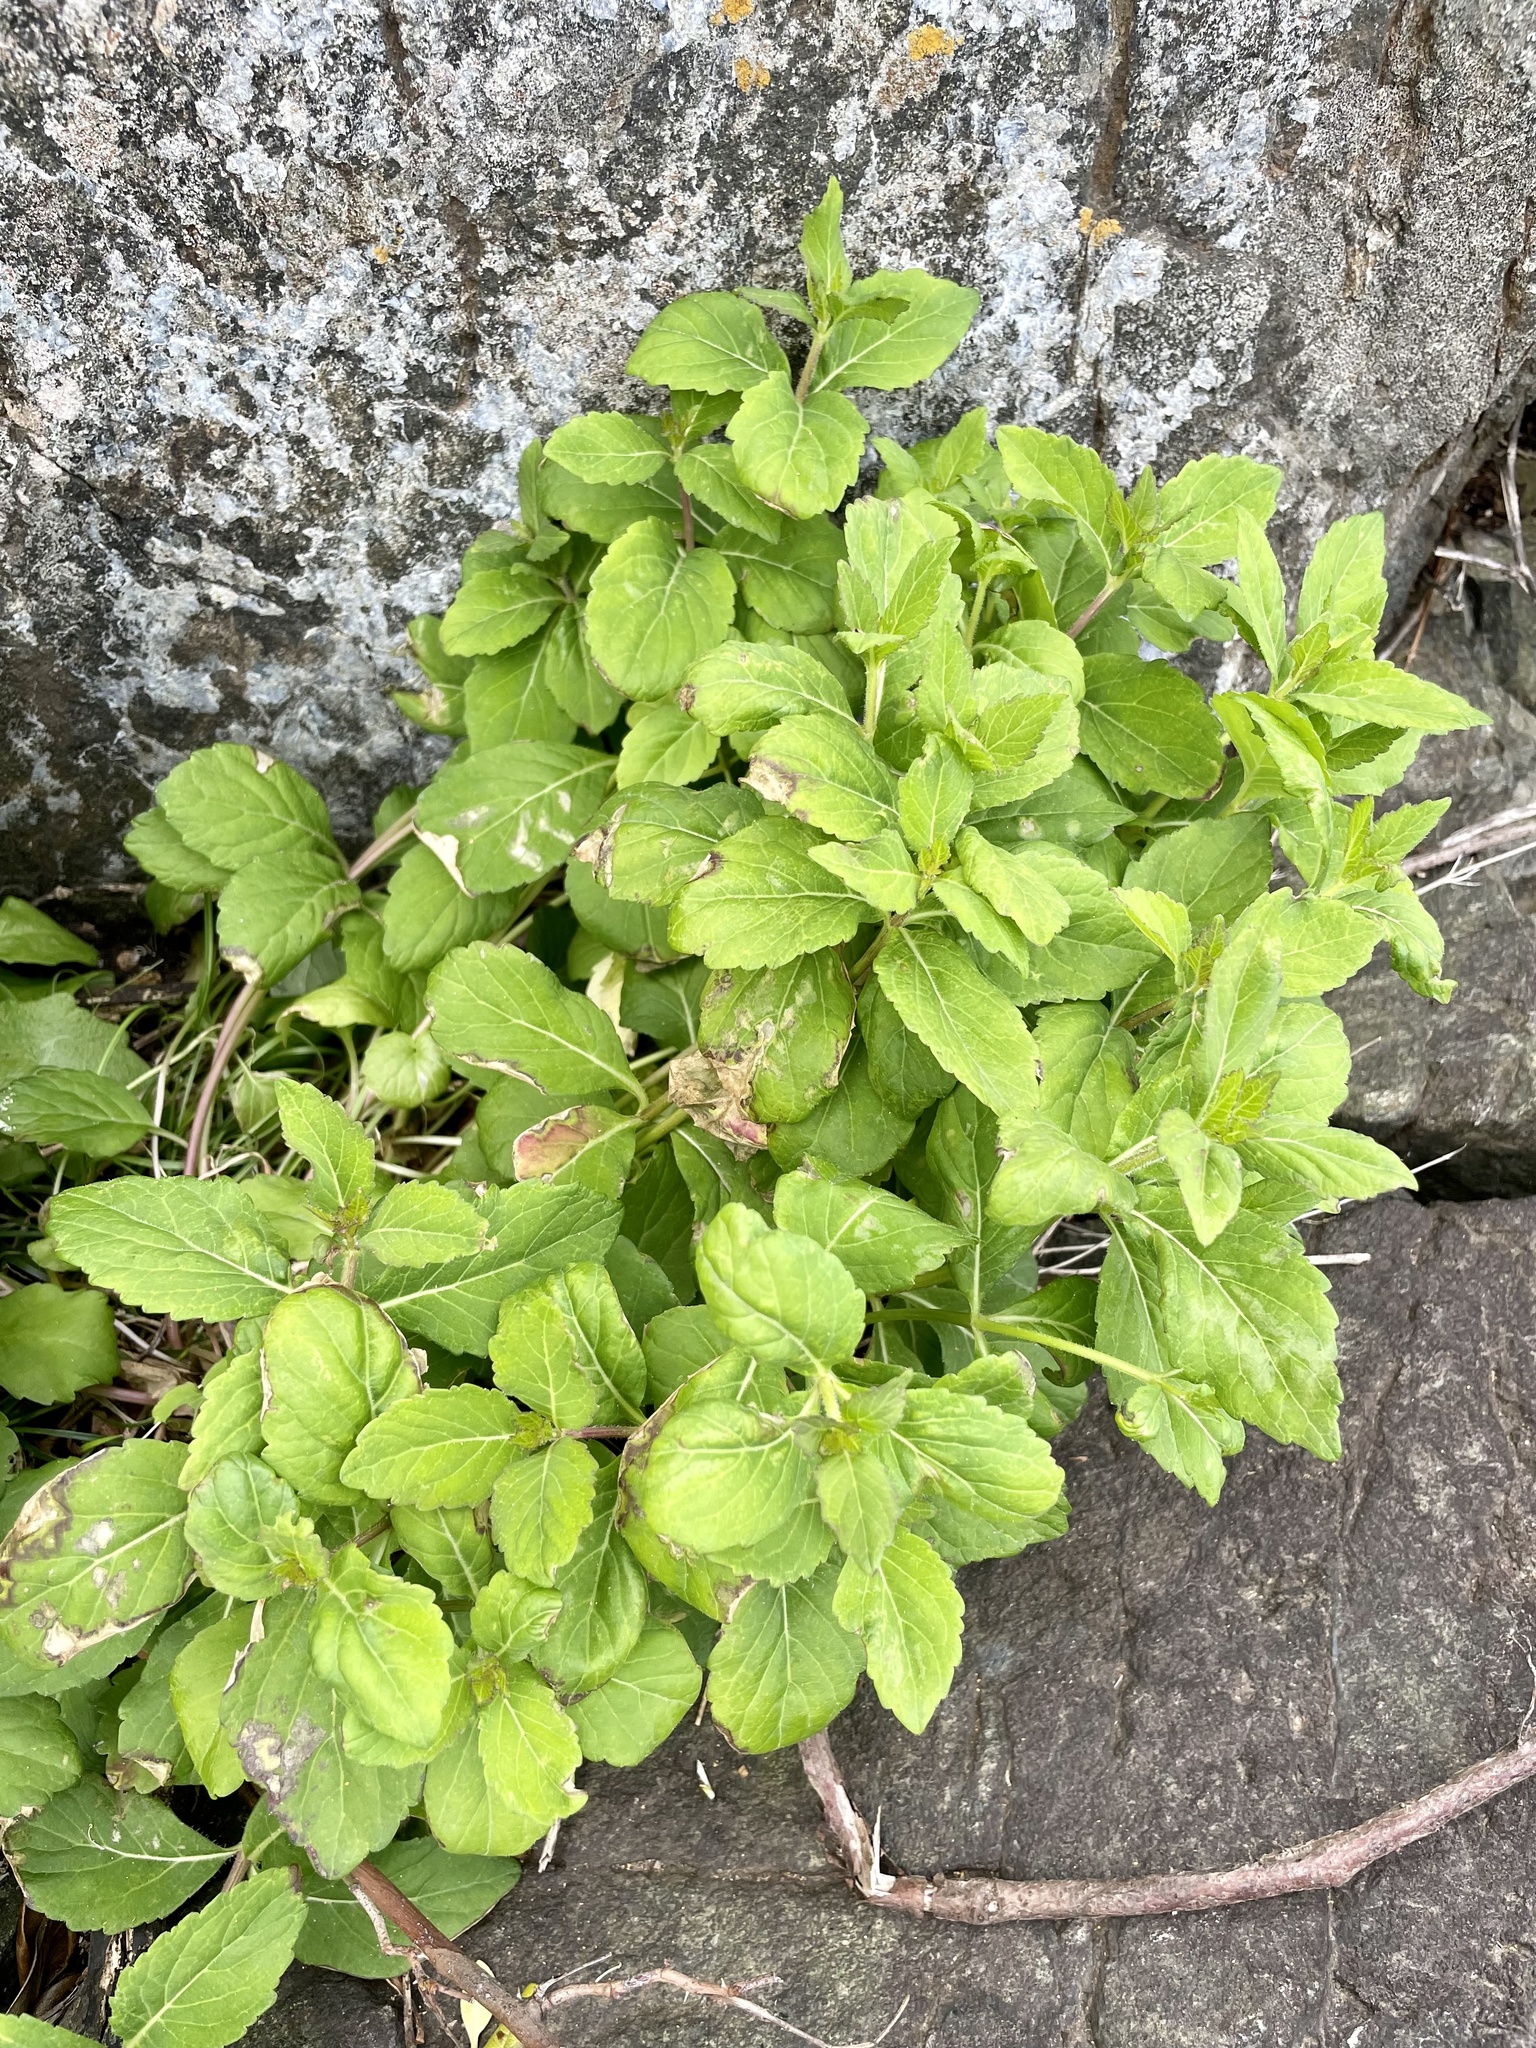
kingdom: Plantae
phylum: Tracheophyta
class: Magnoliopsida
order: Asterales
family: Campanulaceae
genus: Adenophora
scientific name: Adenophora triphylla
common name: Giant-bellflower
